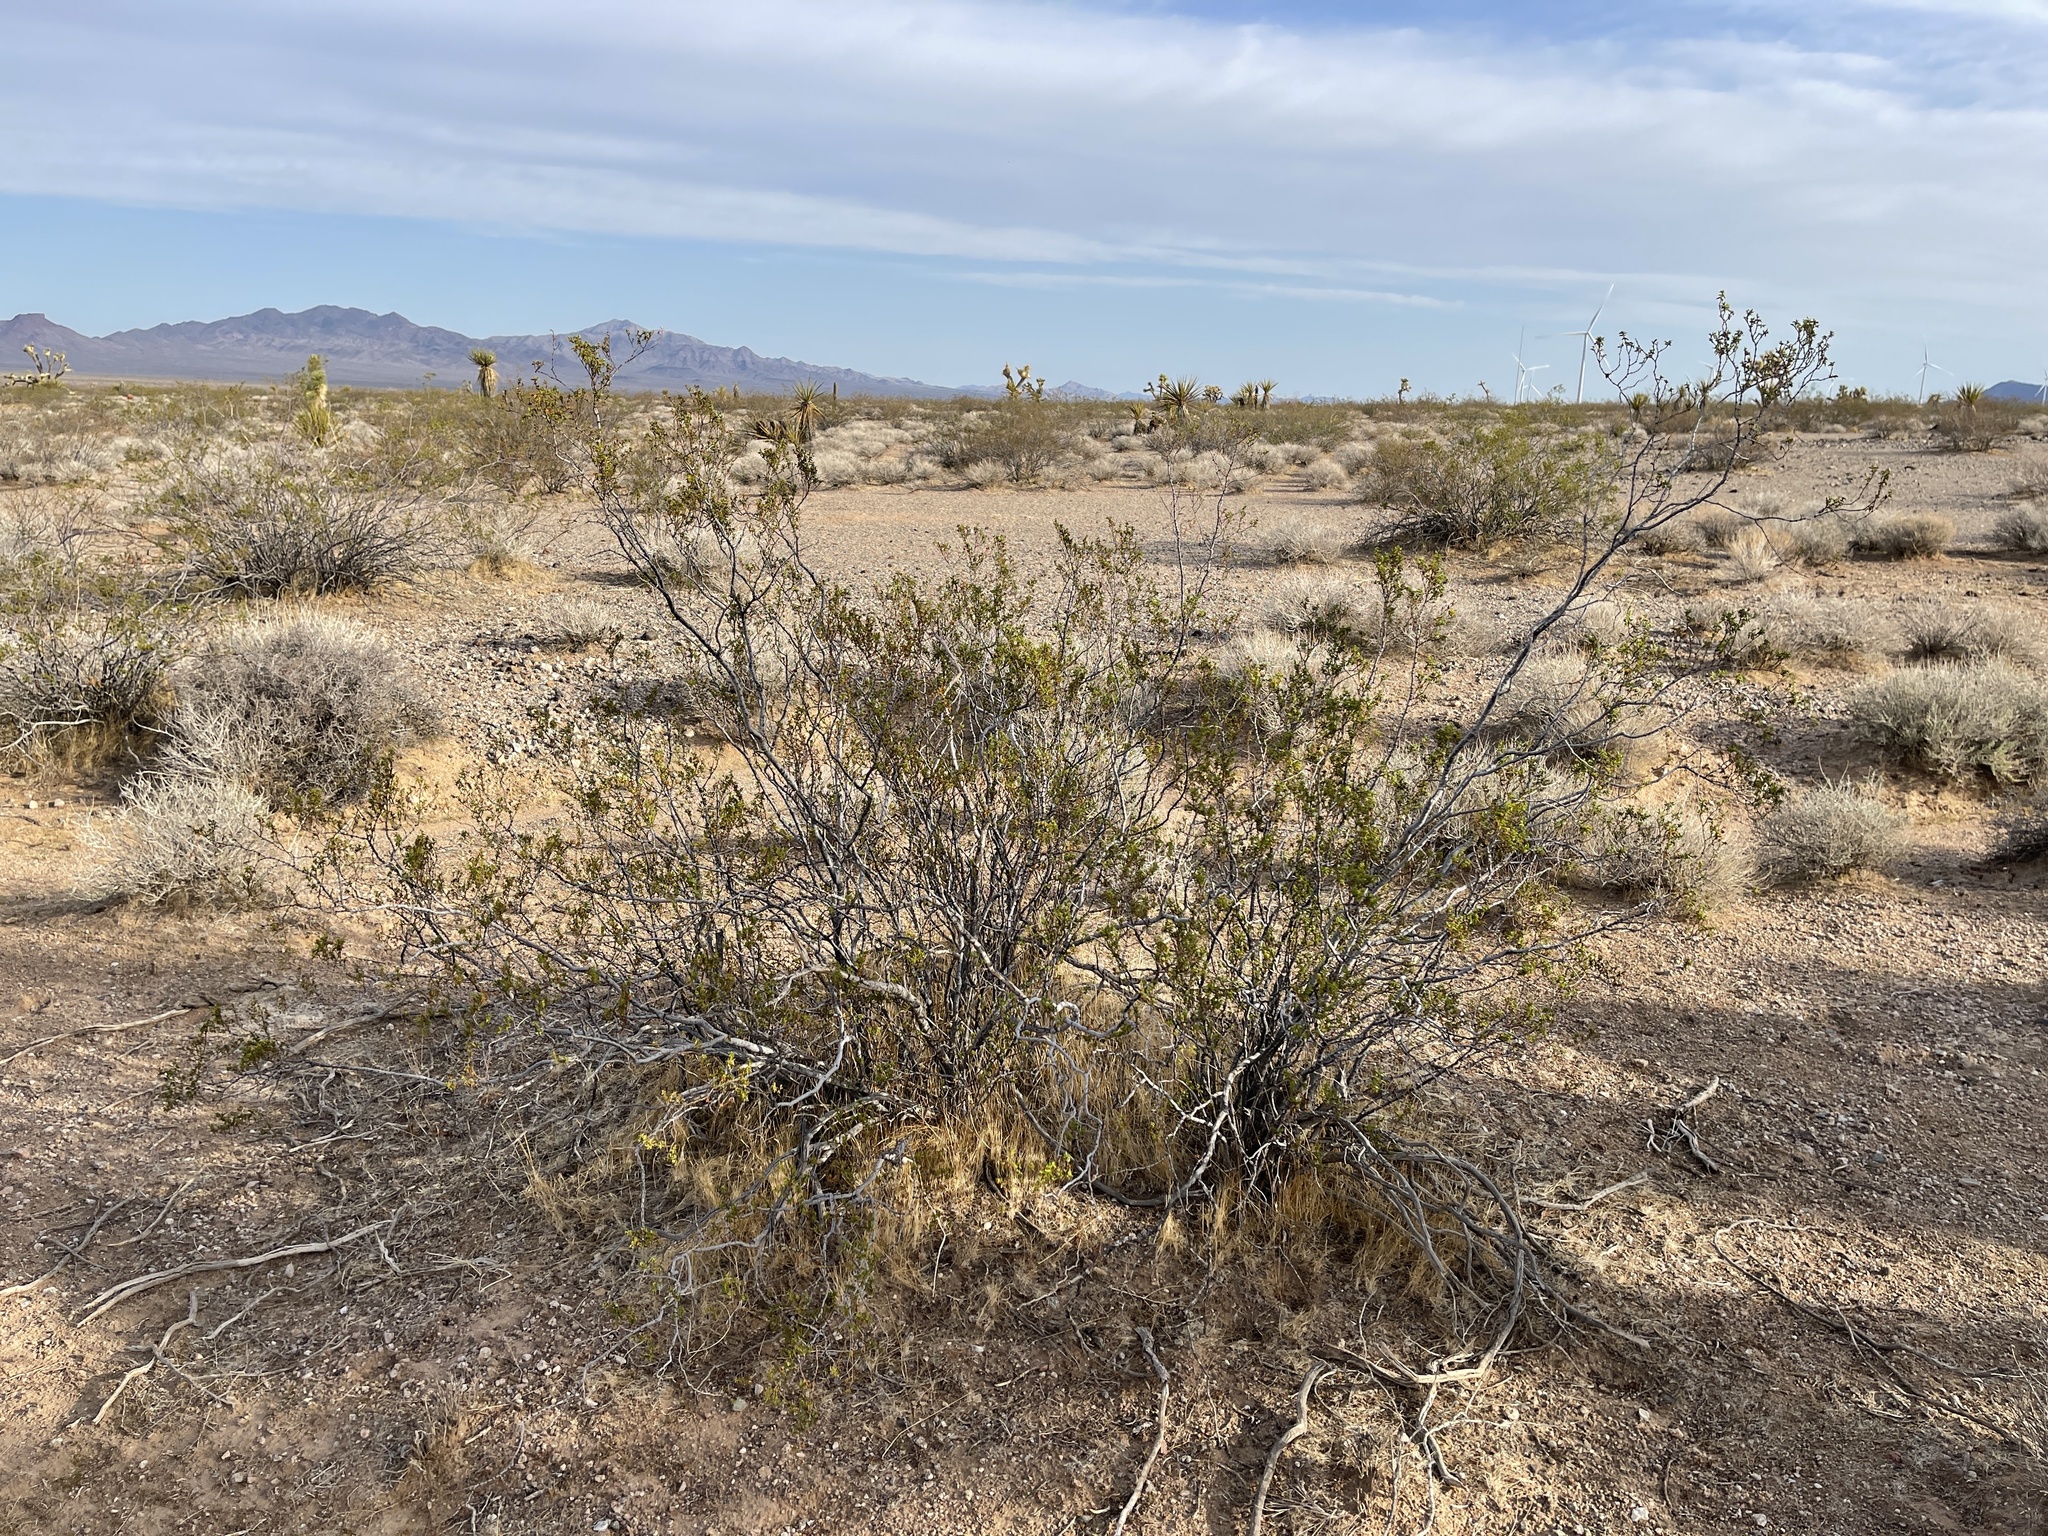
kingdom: Plantae
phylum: Tracheophyta
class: Magnoliopsida
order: Zygophyllales
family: Zygophyllaceae
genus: Larrea
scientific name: Larrea tridentata
